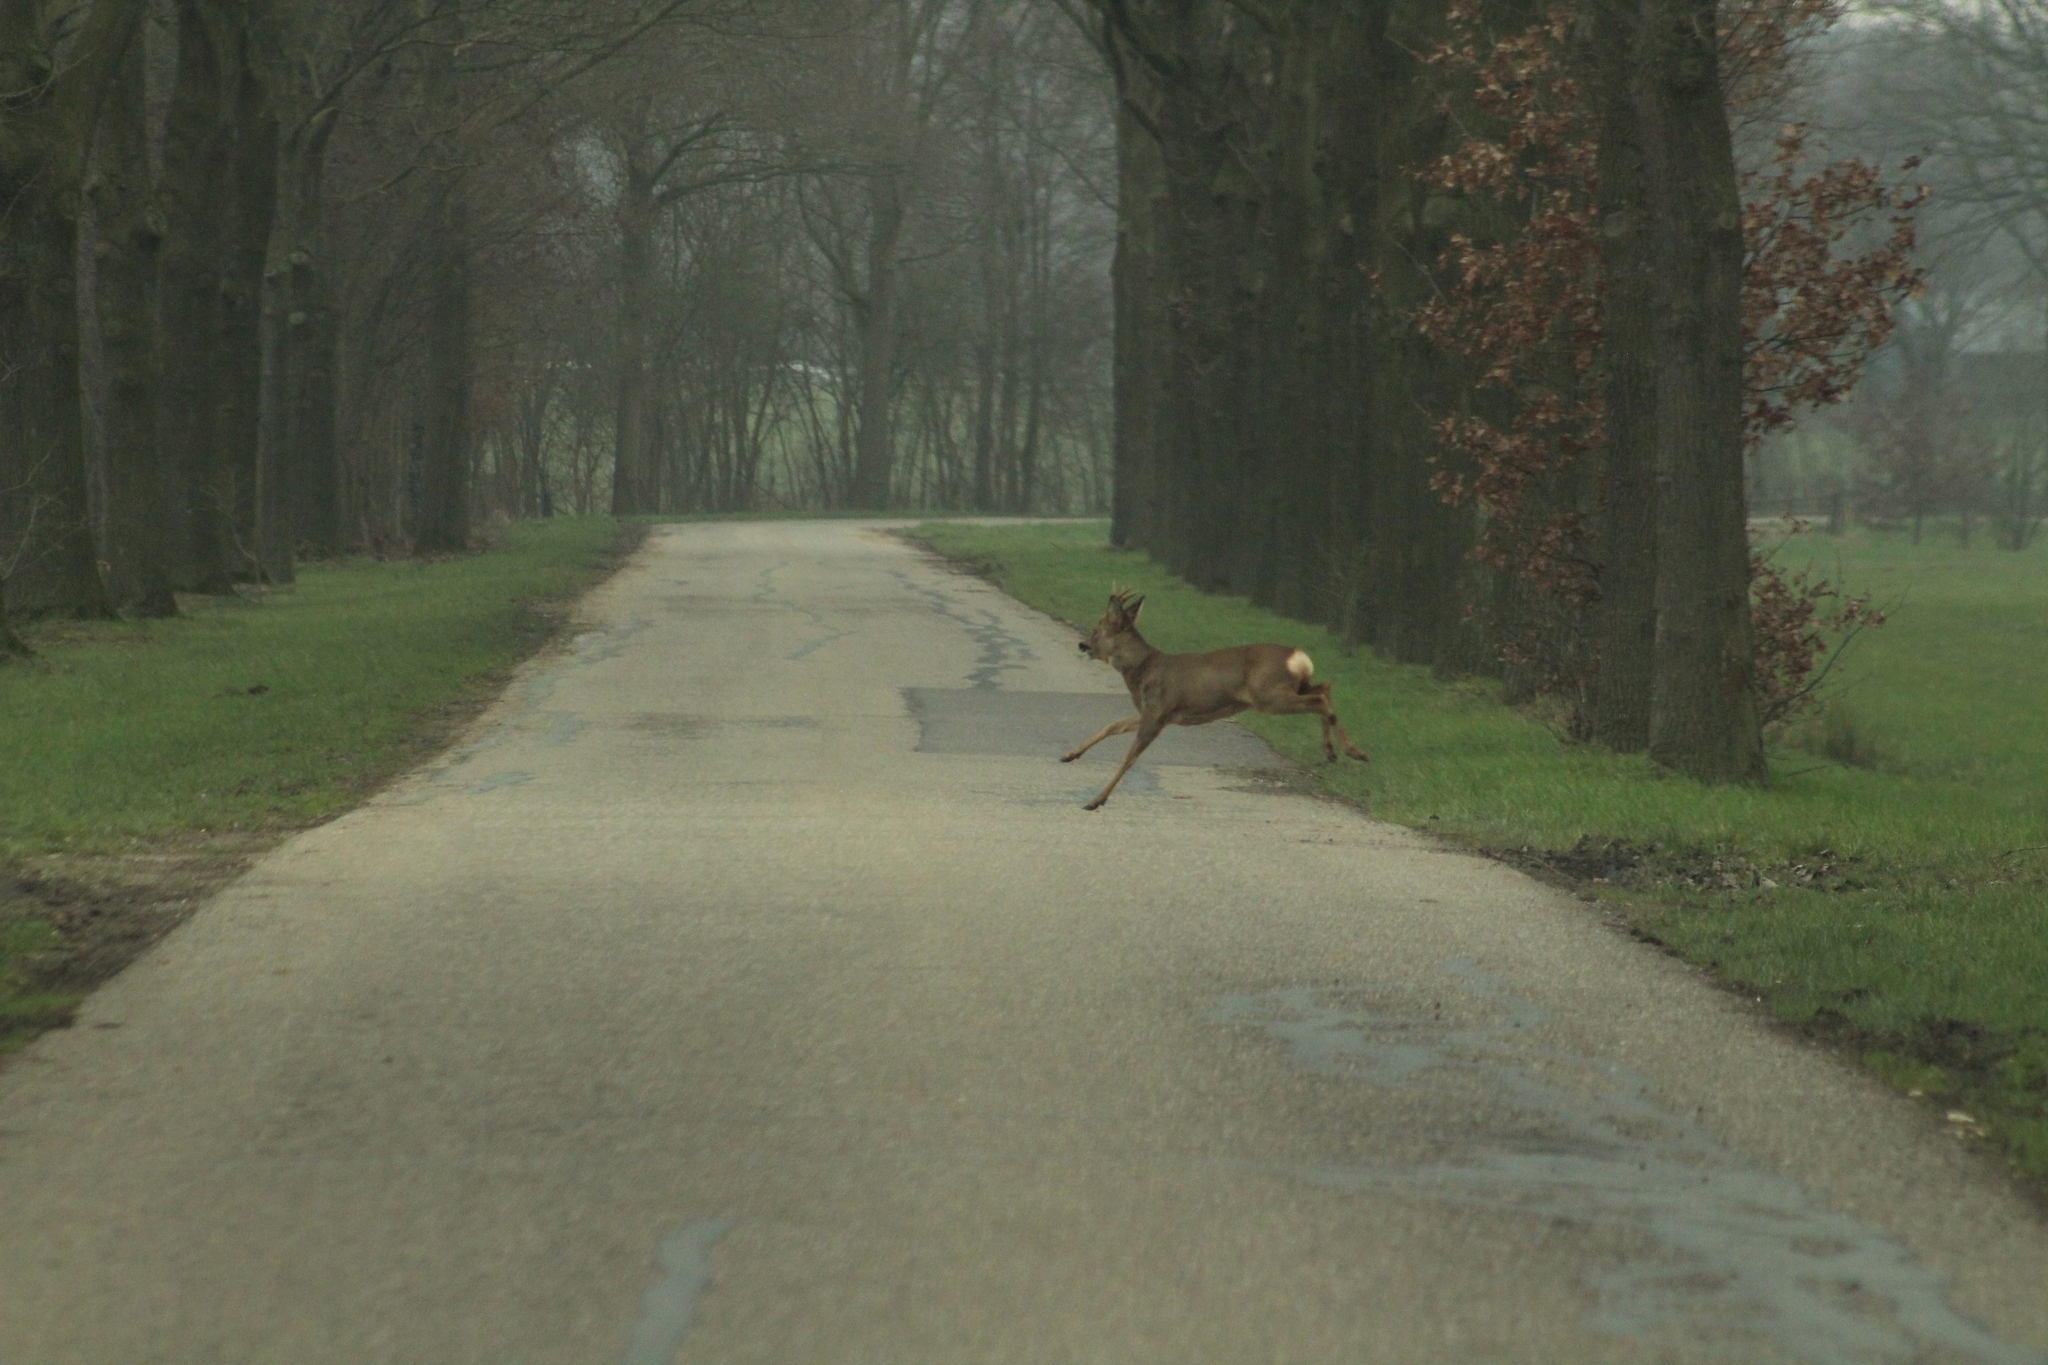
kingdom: Animalia
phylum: Chordata
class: Mammalia
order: Artiodactyla
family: Cervidae
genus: Capreolus
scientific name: Capreolus capreolus
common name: Western roe deer
